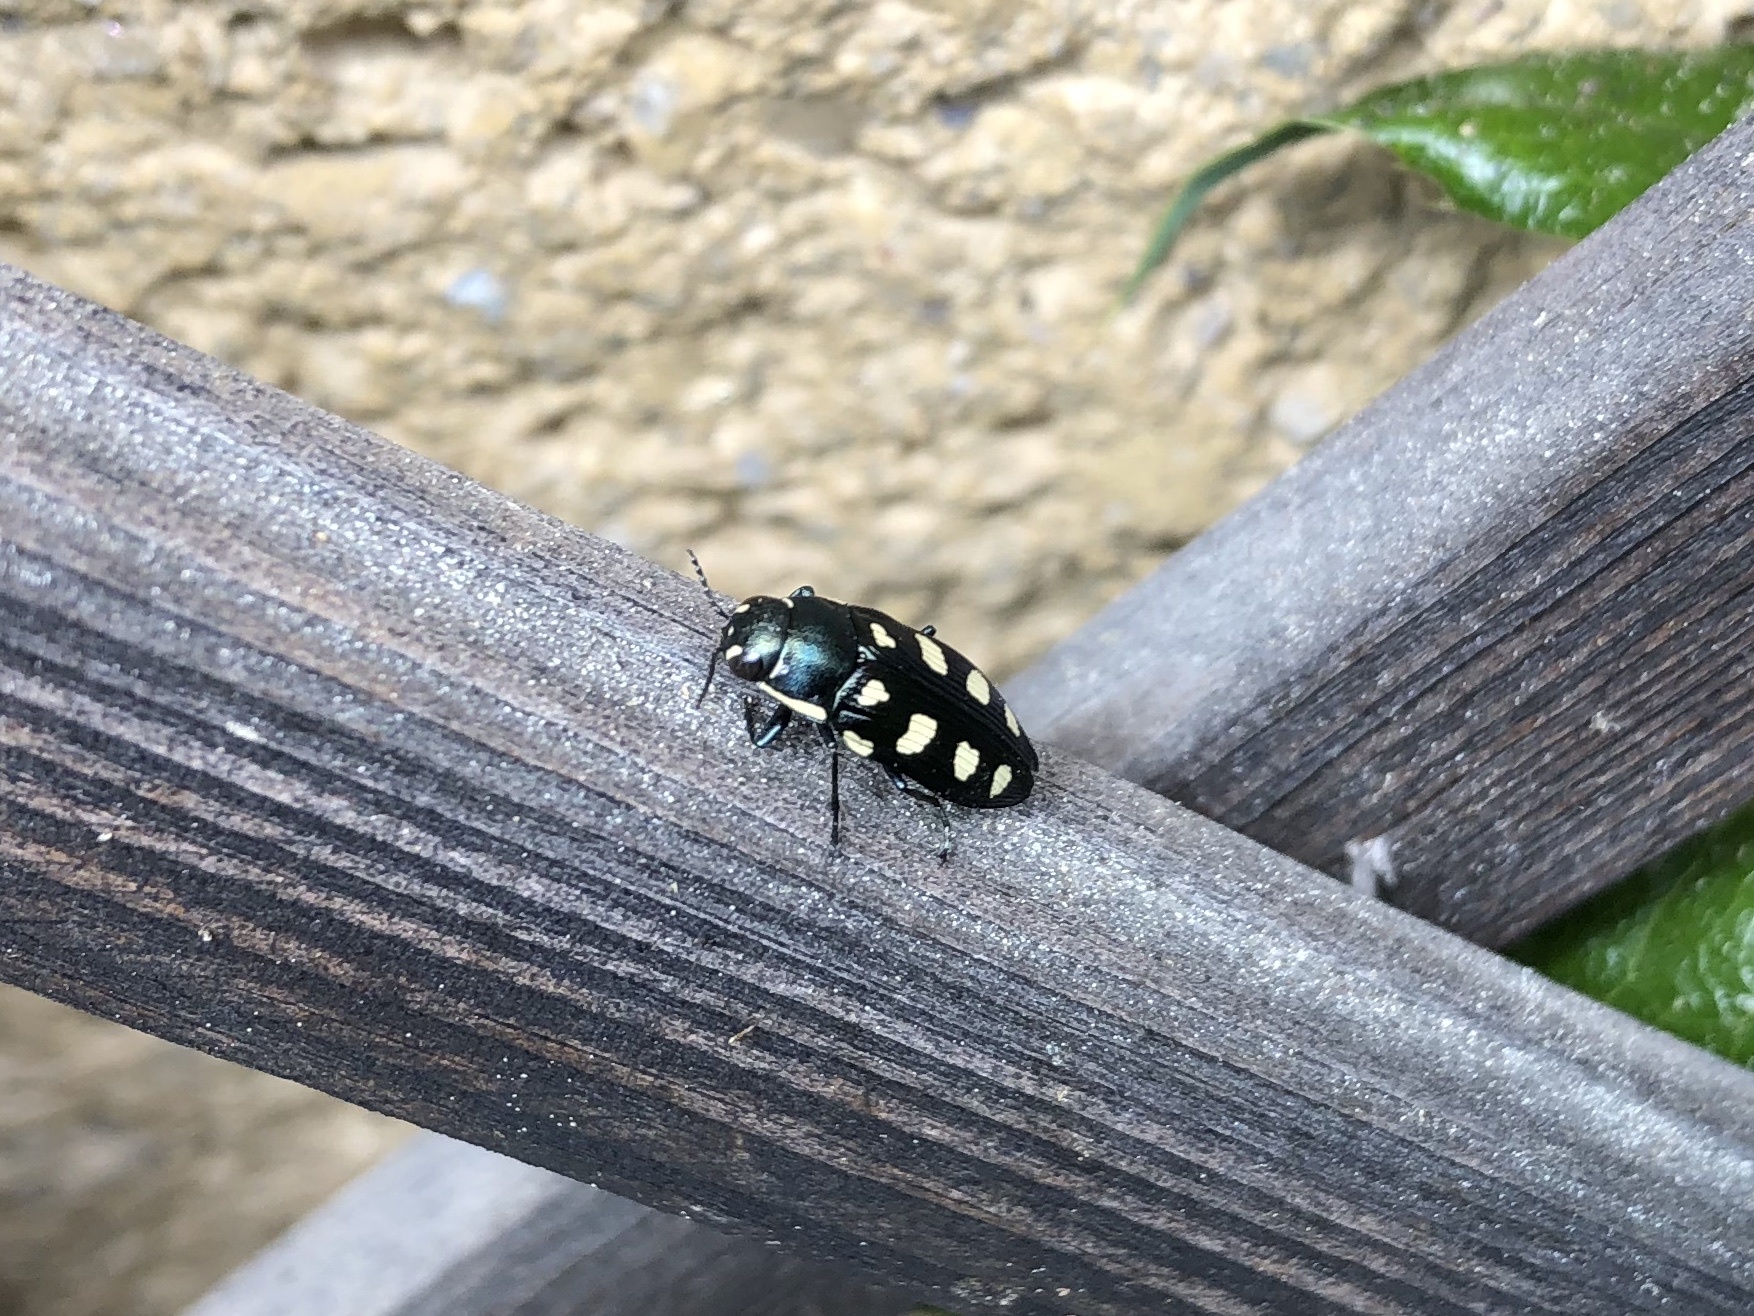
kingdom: Animalia
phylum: Arthropoda
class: Insecta
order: Coleoptera
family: Buprestidae
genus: Buprestis
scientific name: Buprestis octoguttata
